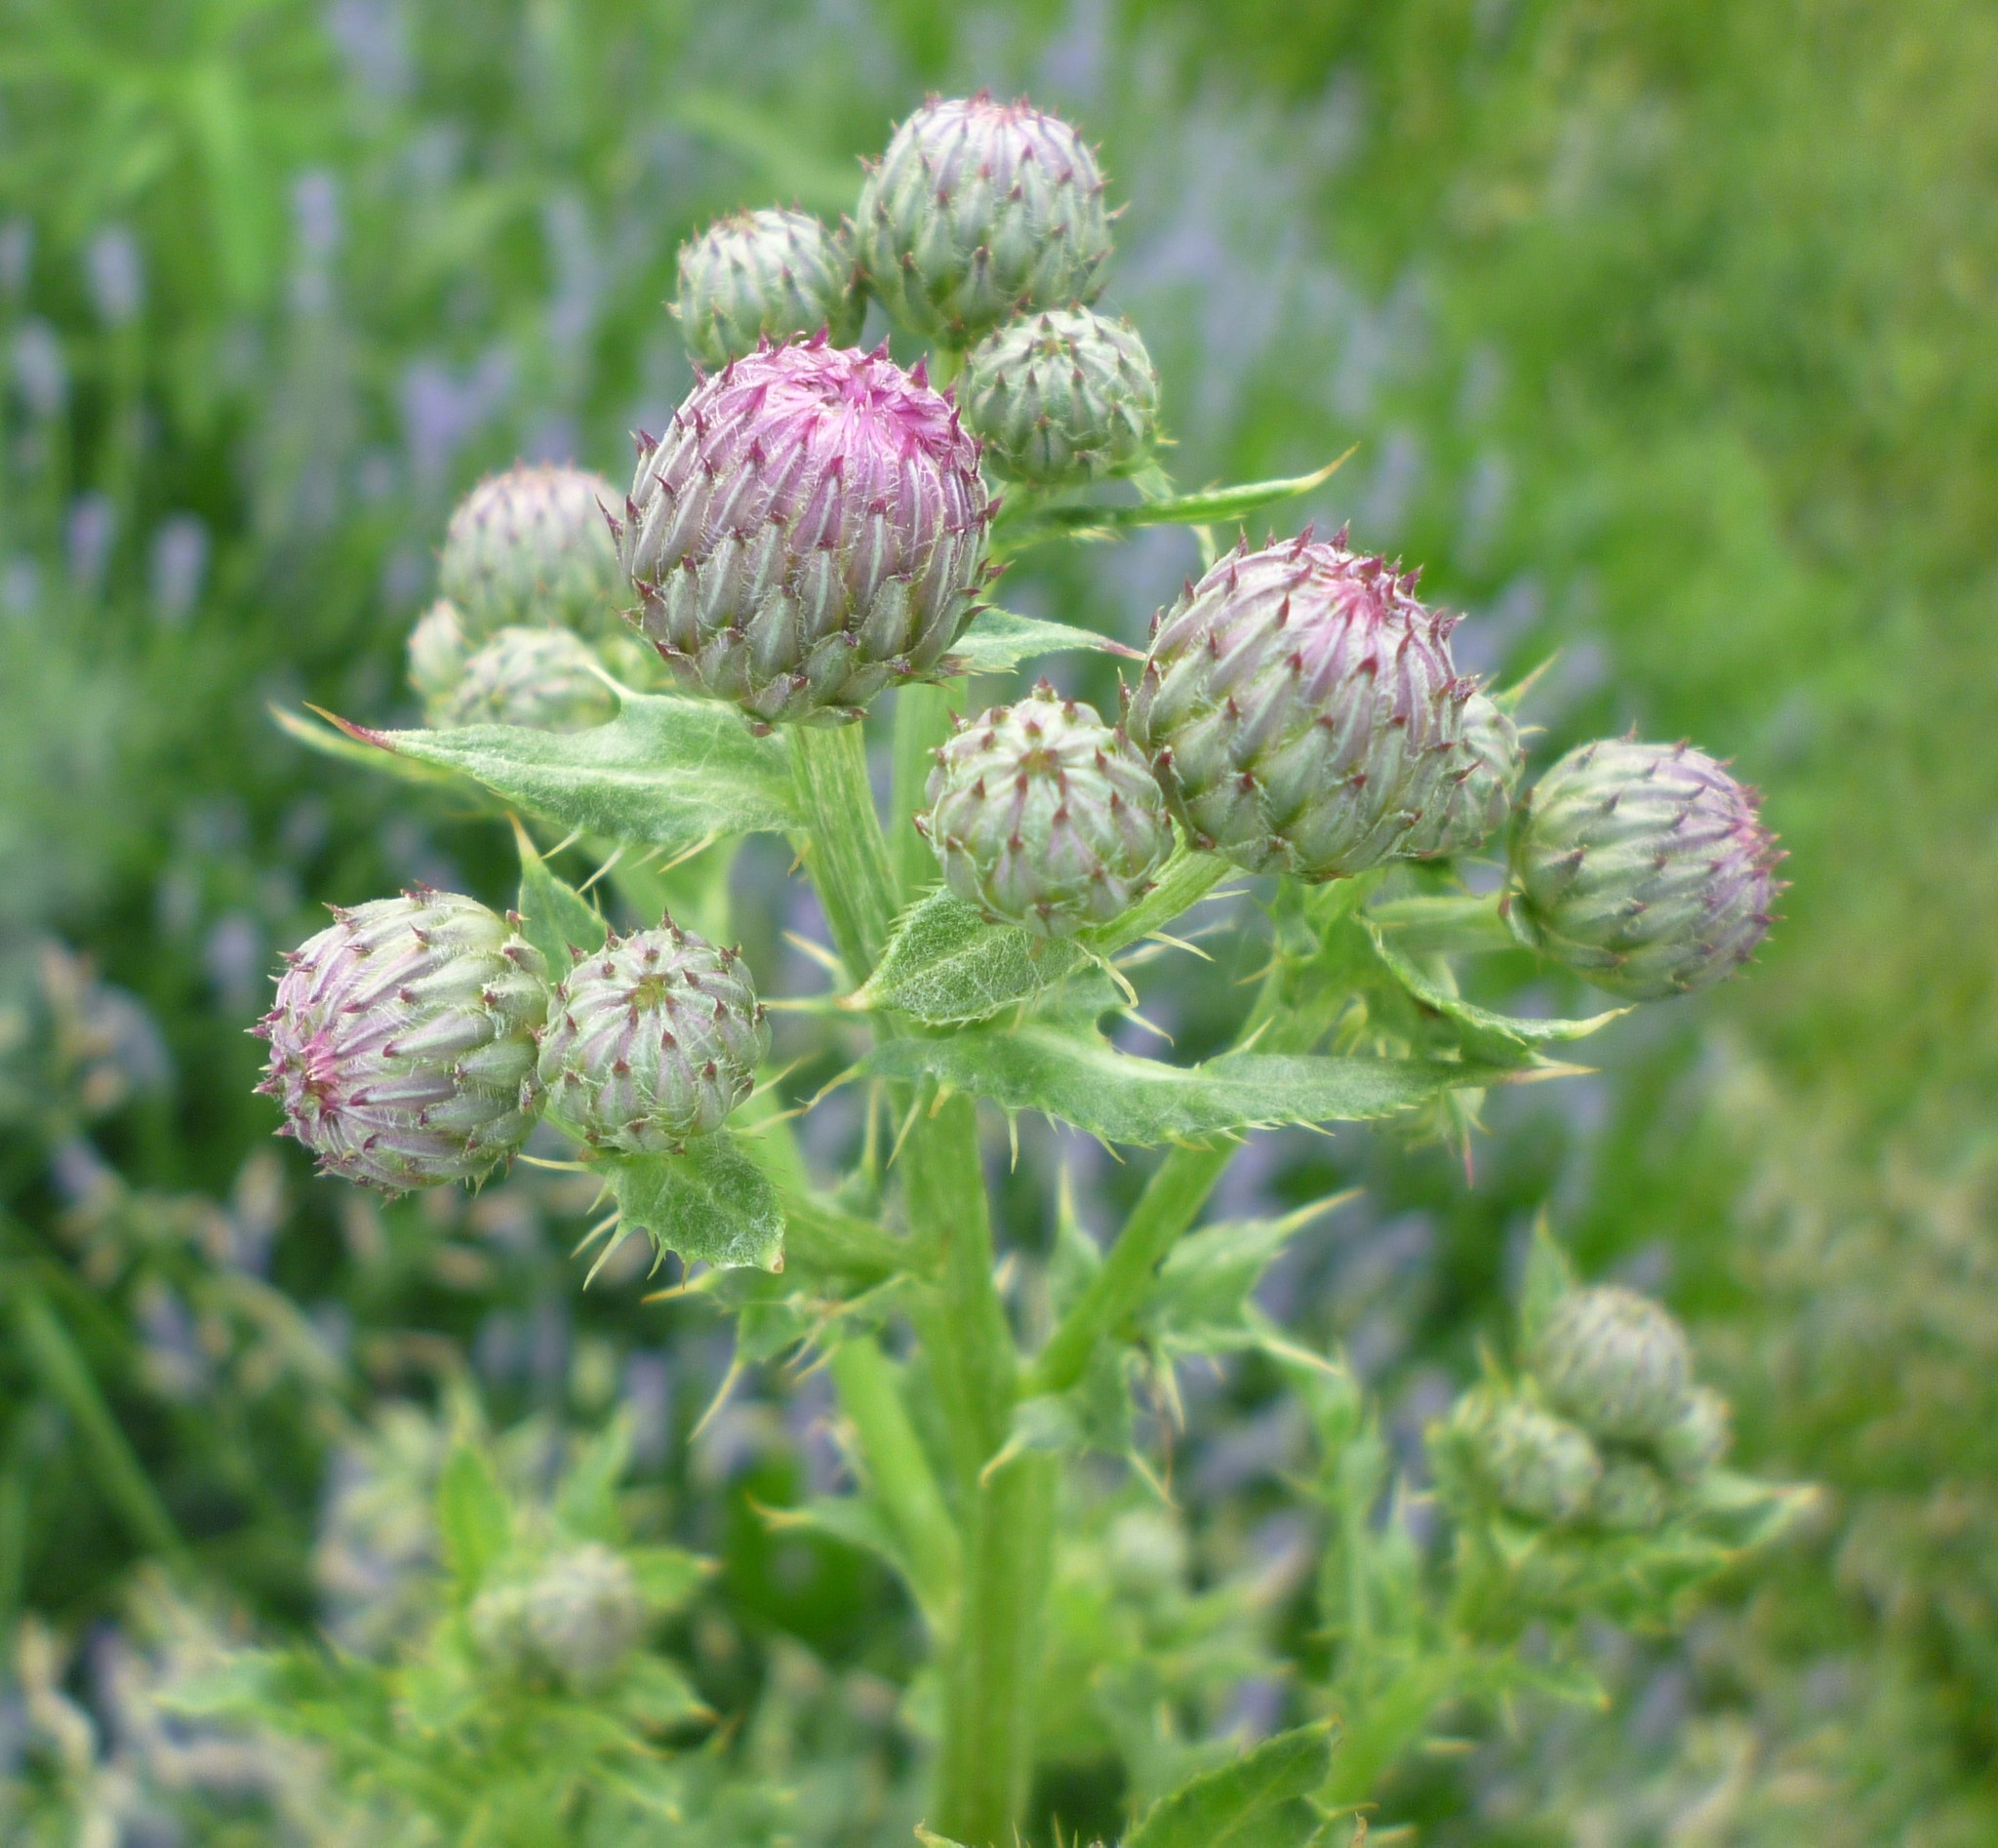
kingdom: Plantae
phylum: Tracheophyta
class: Magnoliopsida
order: Asterales
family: Asteraceae
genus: Cirsium
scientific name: Cirsium arvense
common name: Creeping thistle
